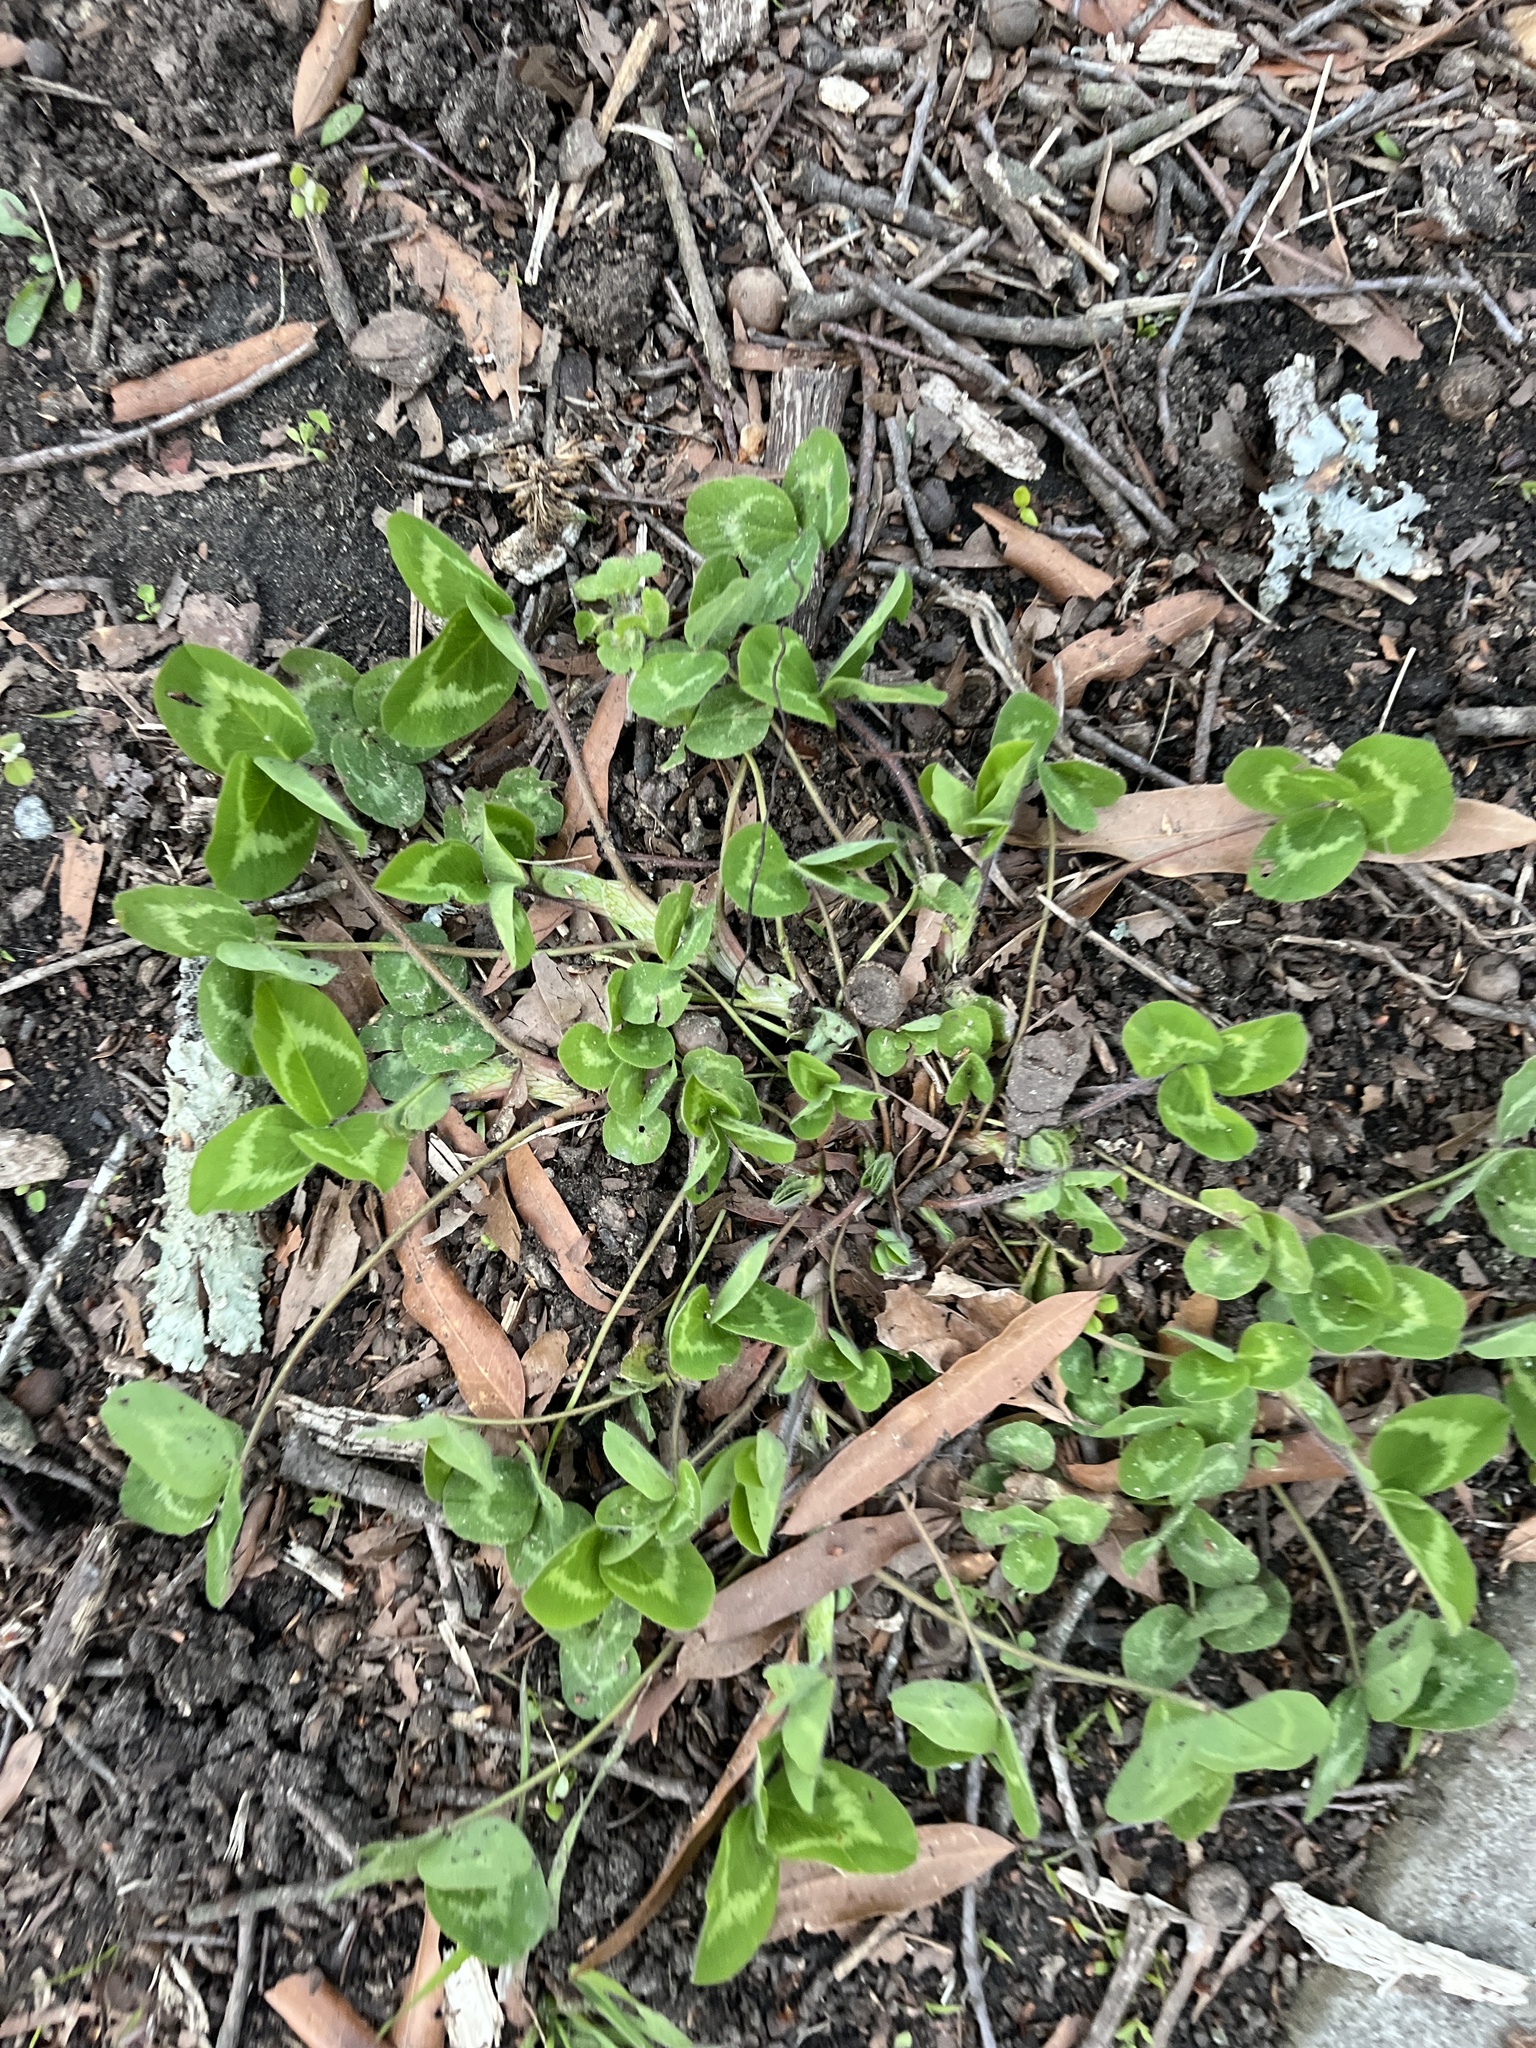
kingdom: Plantae
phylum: Tracheophyta
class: Magnoliopsida
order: Fabales
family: Fabaceae
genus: Trifolium
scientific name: Trifolium pratense
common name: Red clover
